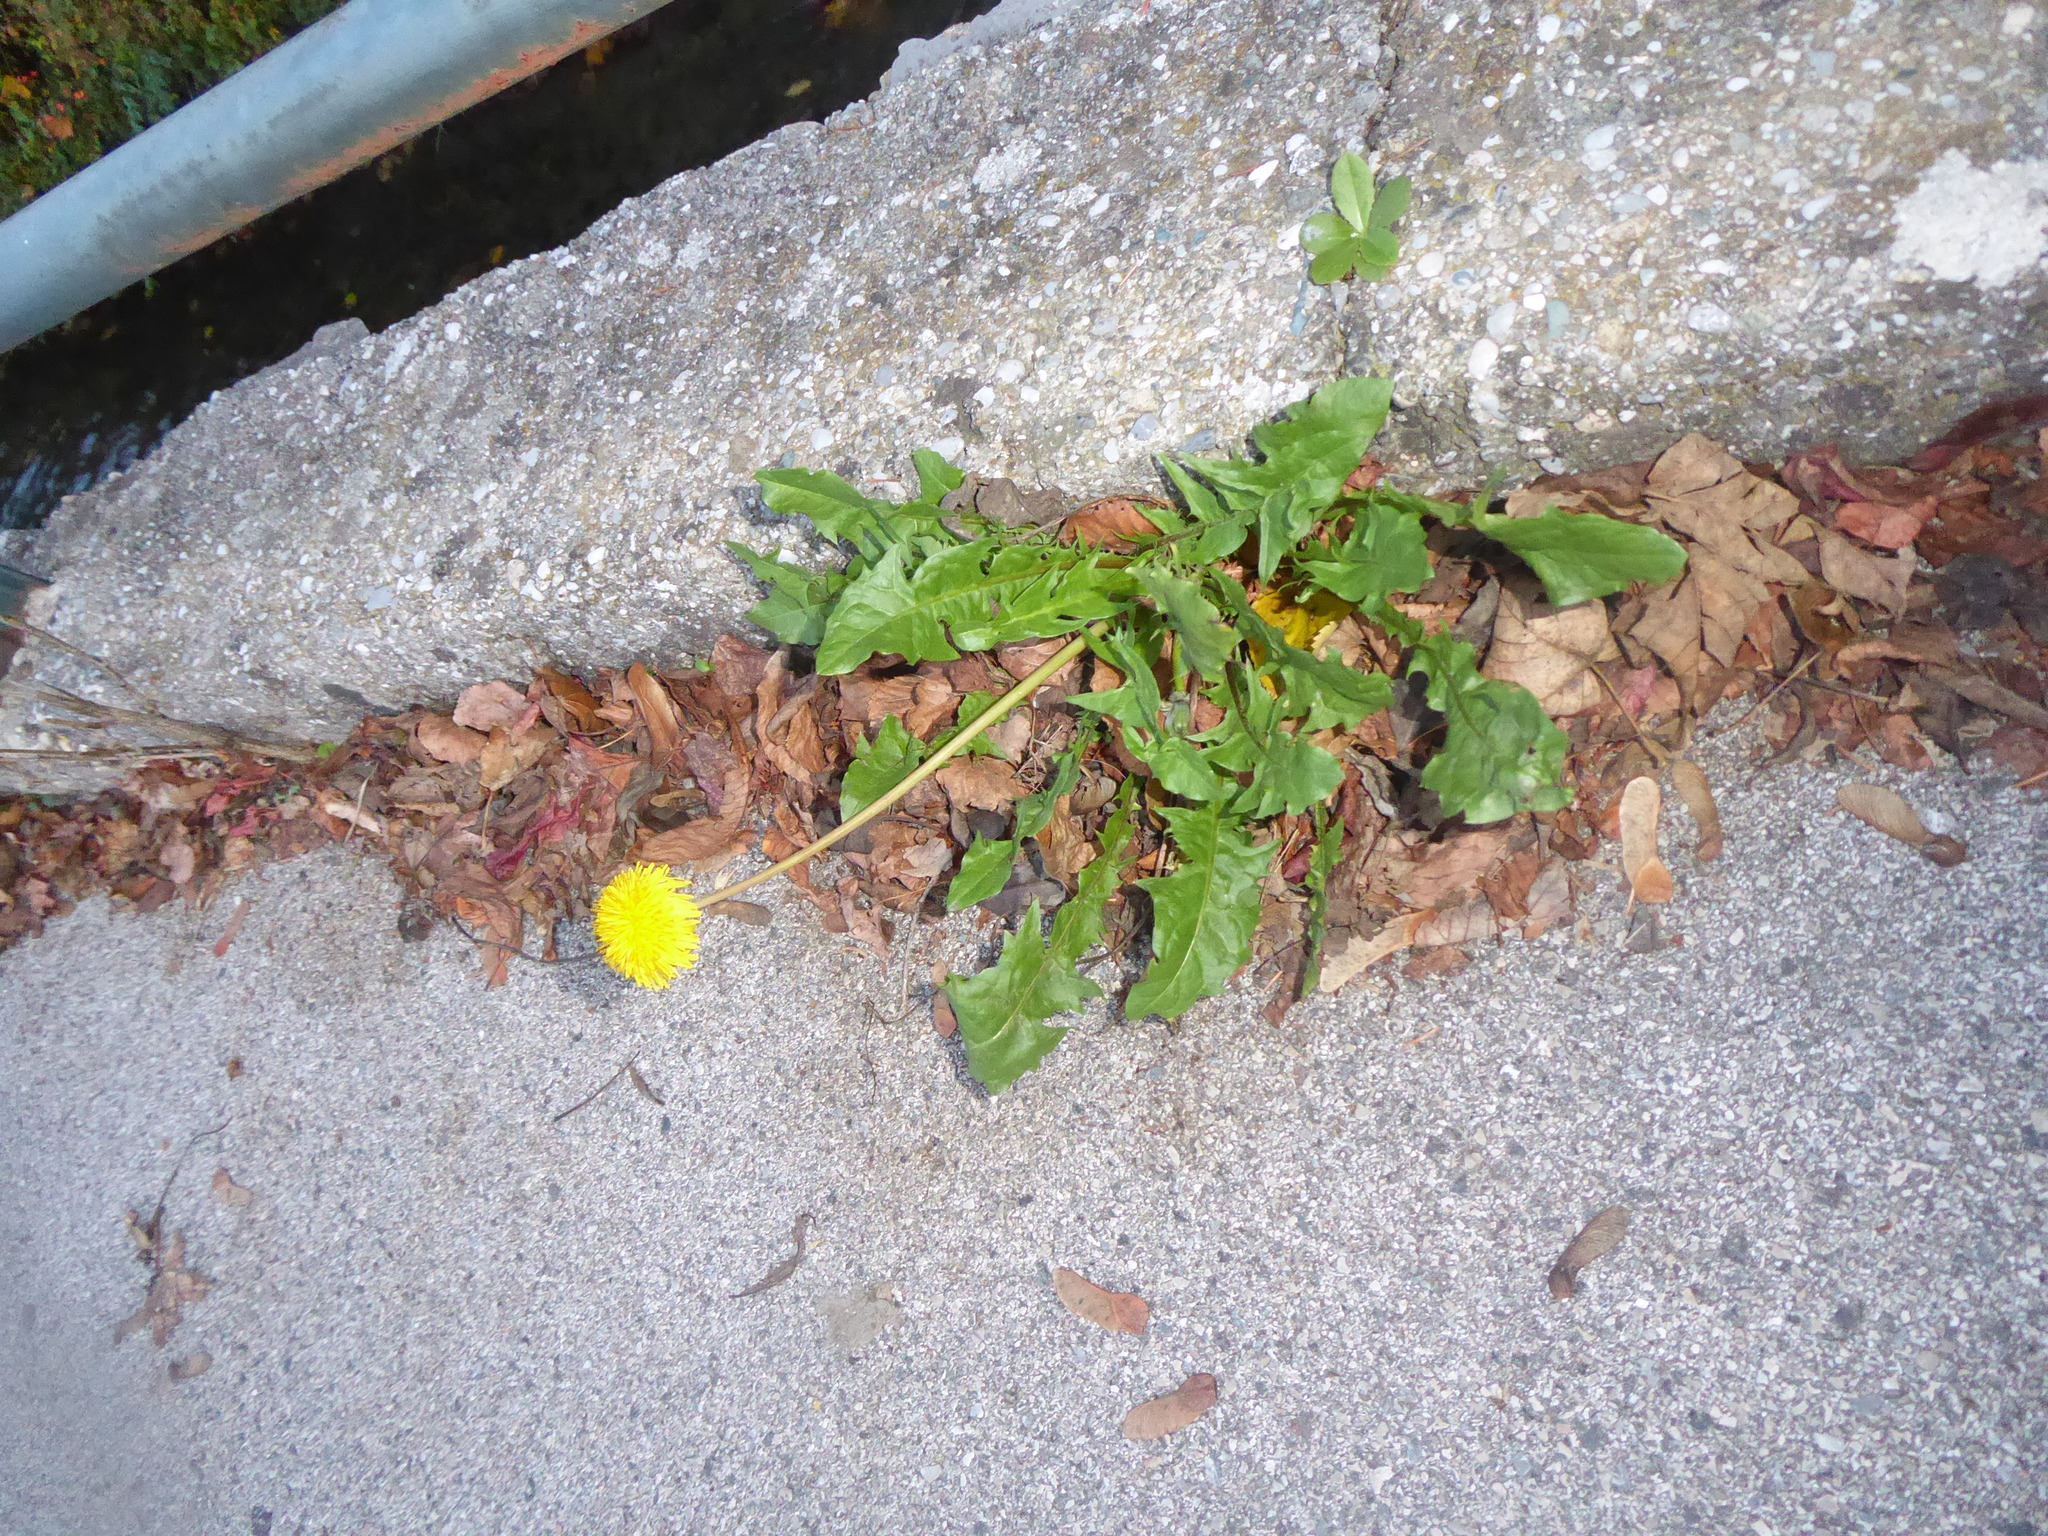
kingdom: Plantae
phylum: Tracheophyta
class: Magnoliopsida
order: Asterales
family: Asteraceae
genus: Taraxacum
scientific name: Taraxacum
